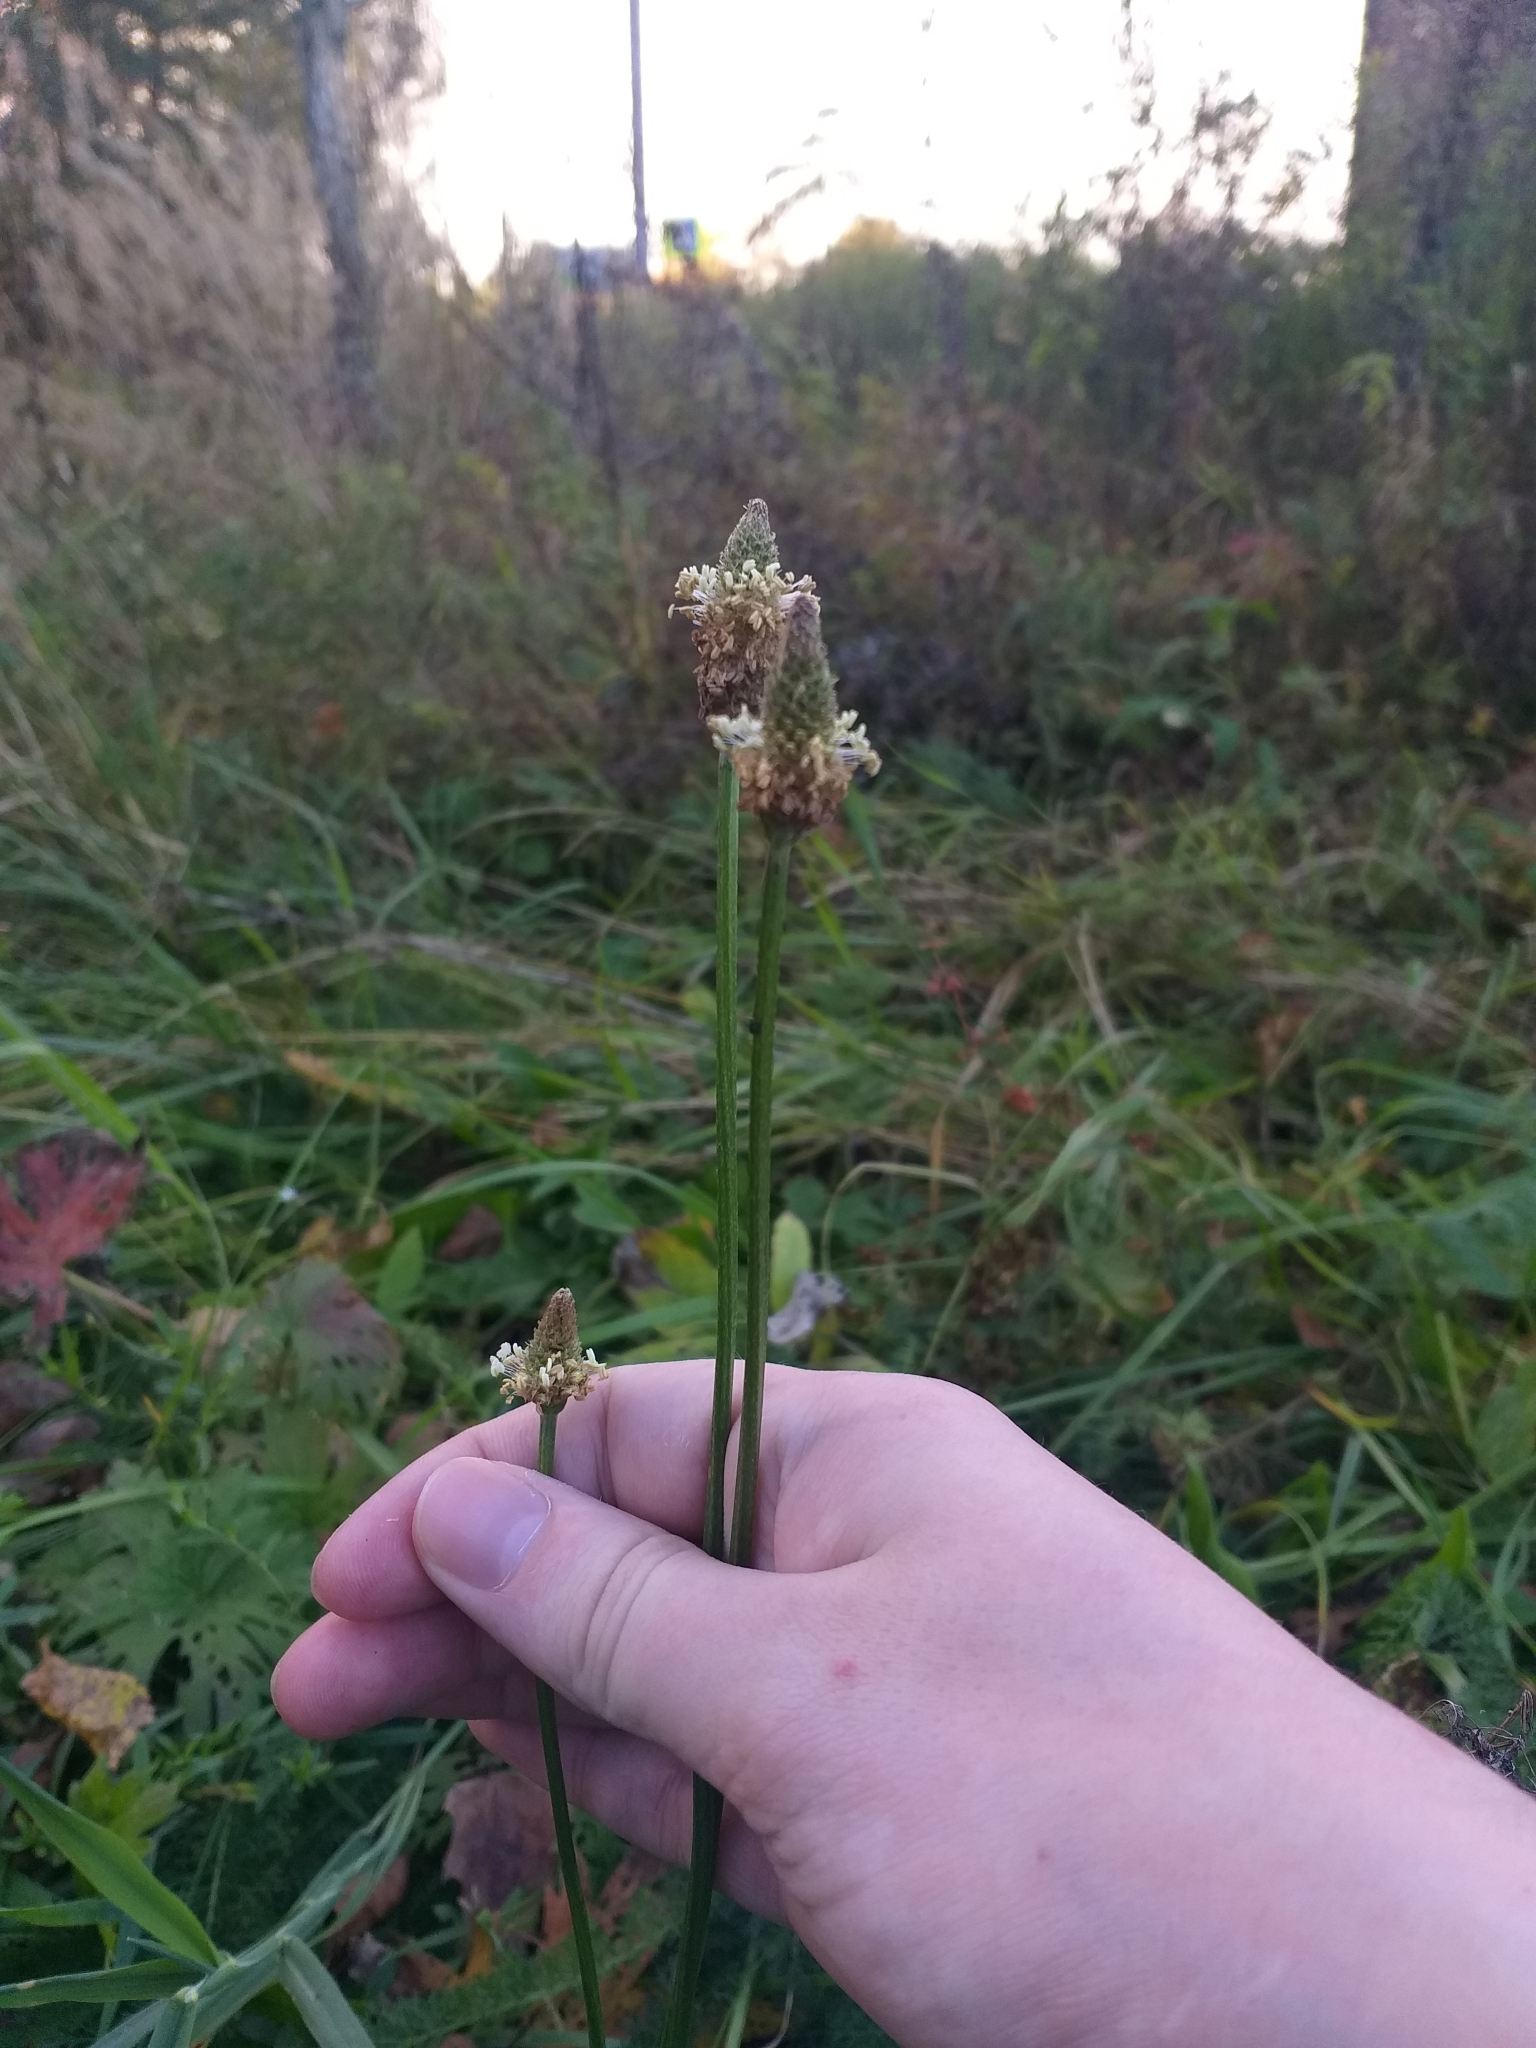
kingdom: Plantae
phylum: Tracheophyta
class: Magnoliopsida
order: Lamiales
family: Plantaginaceae
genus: Plantago
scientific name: Plantago lanceolata
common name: Ribwort plantain
